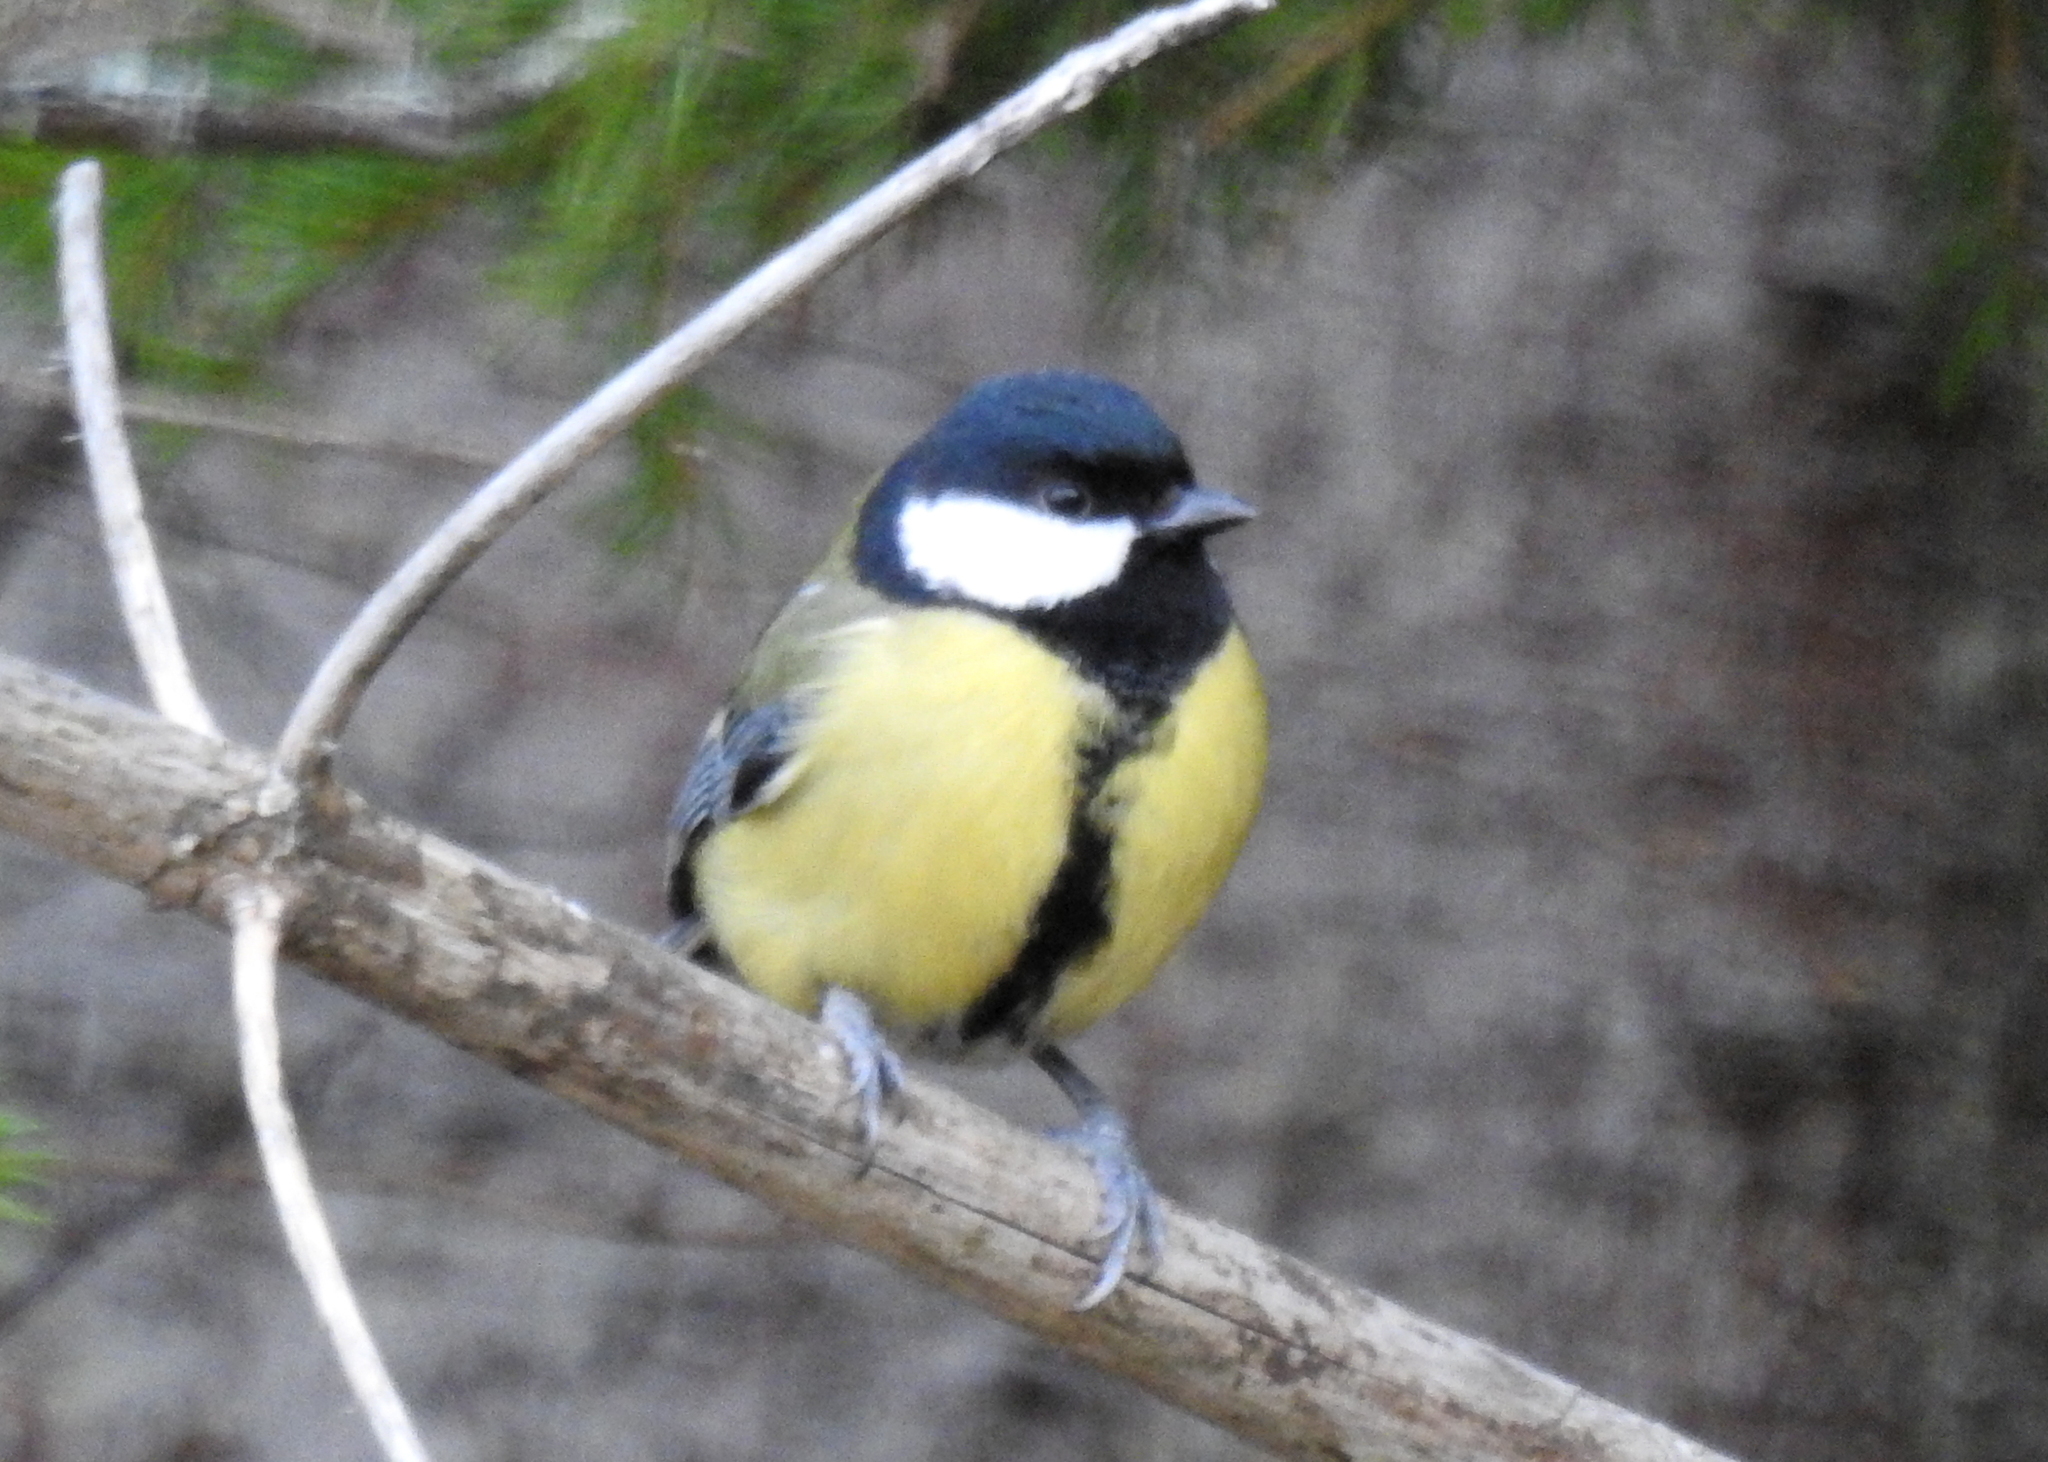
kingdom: Animalia
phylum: Chordata
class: Aves
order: Passeriformes
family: Paridae
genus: Parus
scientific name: Parus major
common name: Great tit
